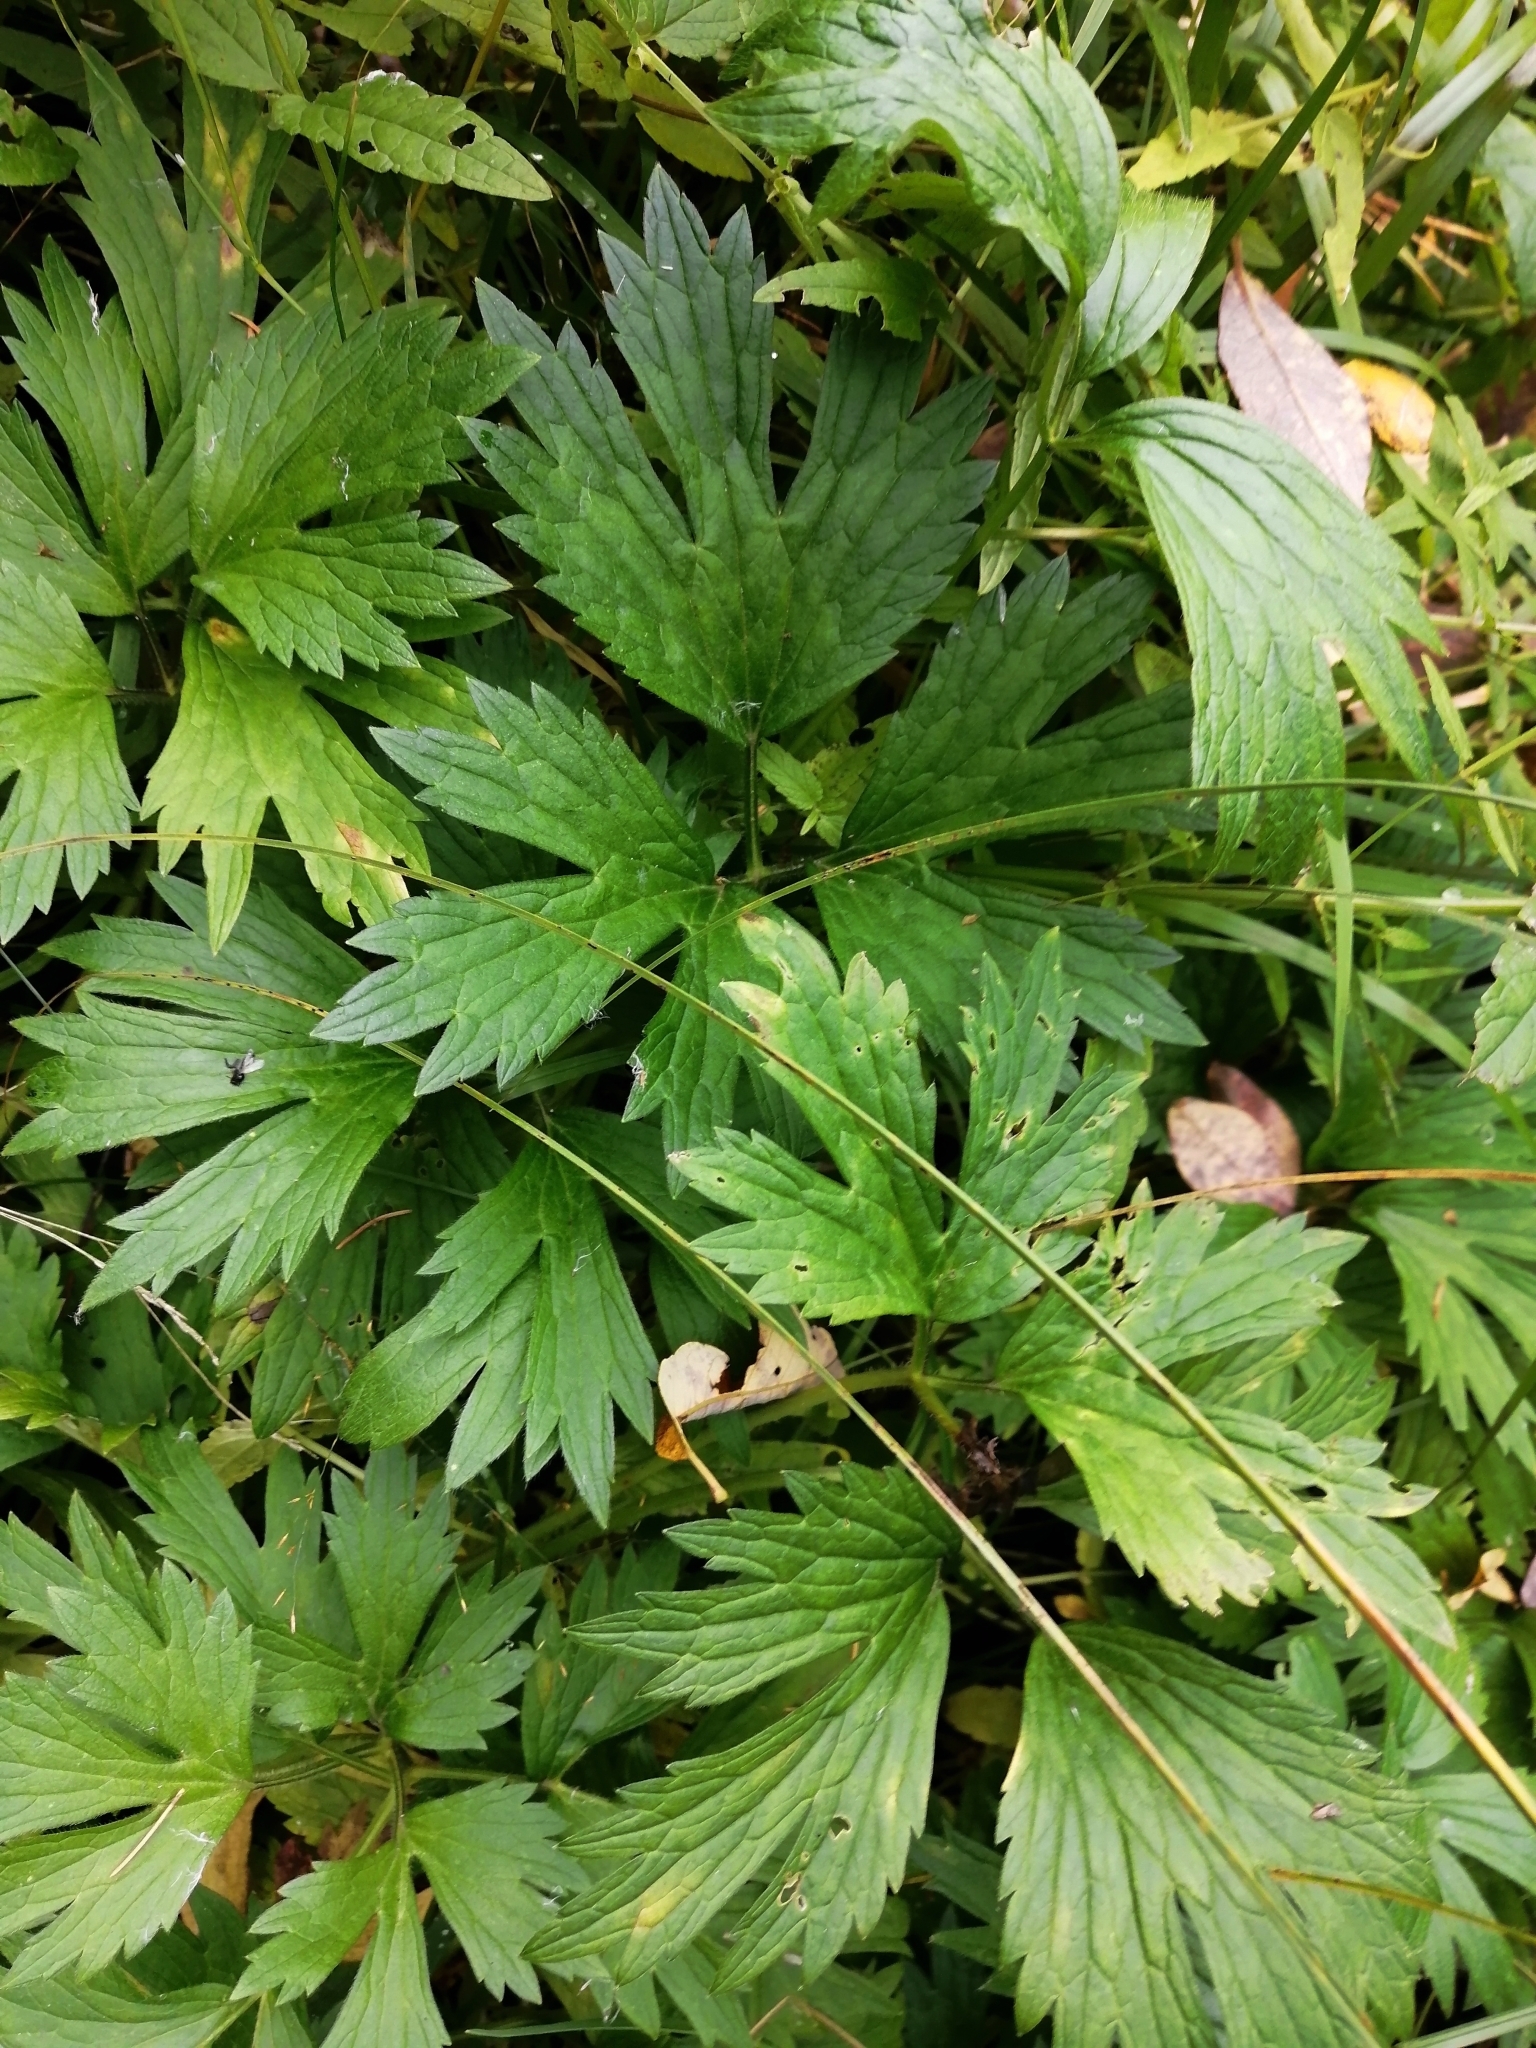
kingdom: Plantae
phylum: Tracheophyta
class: Magnoliopsida
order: Ranunculales
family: Ranunculaceae
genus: Ranunculus
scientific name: Ranunculus repens
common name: Creeping buttercup
